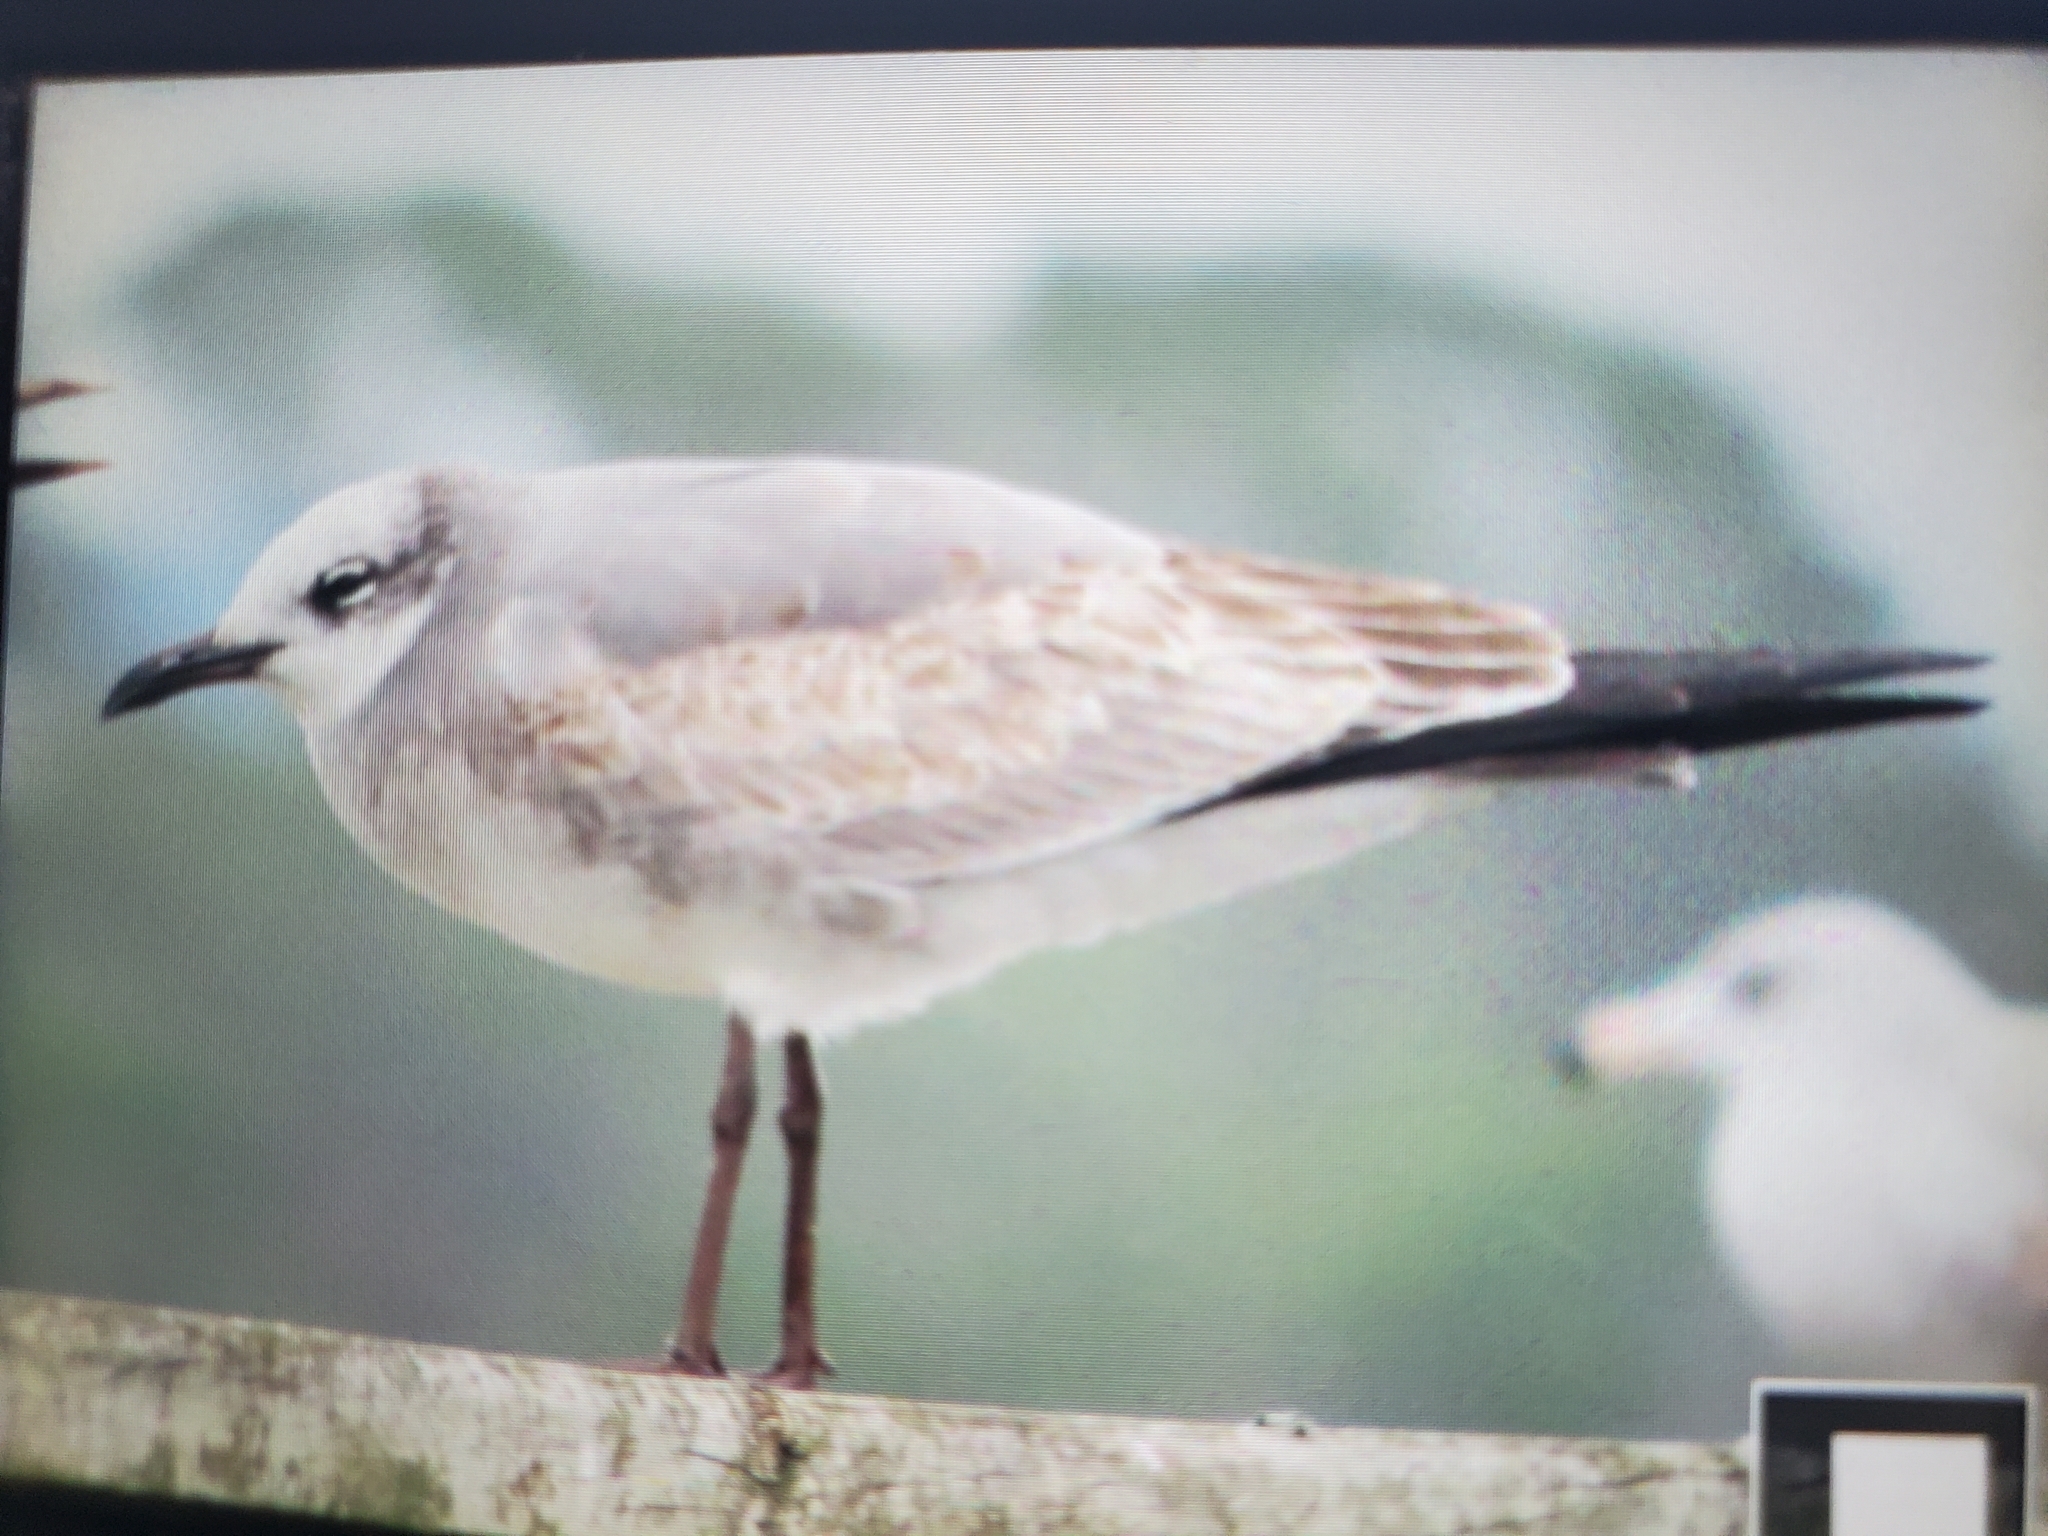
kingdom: Animalia
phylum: Chordata
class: Aves
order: Charadriiformes
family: Laridae
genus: Leucophaeus
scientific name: Leucophaeus atricilla
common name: Laughing gull
